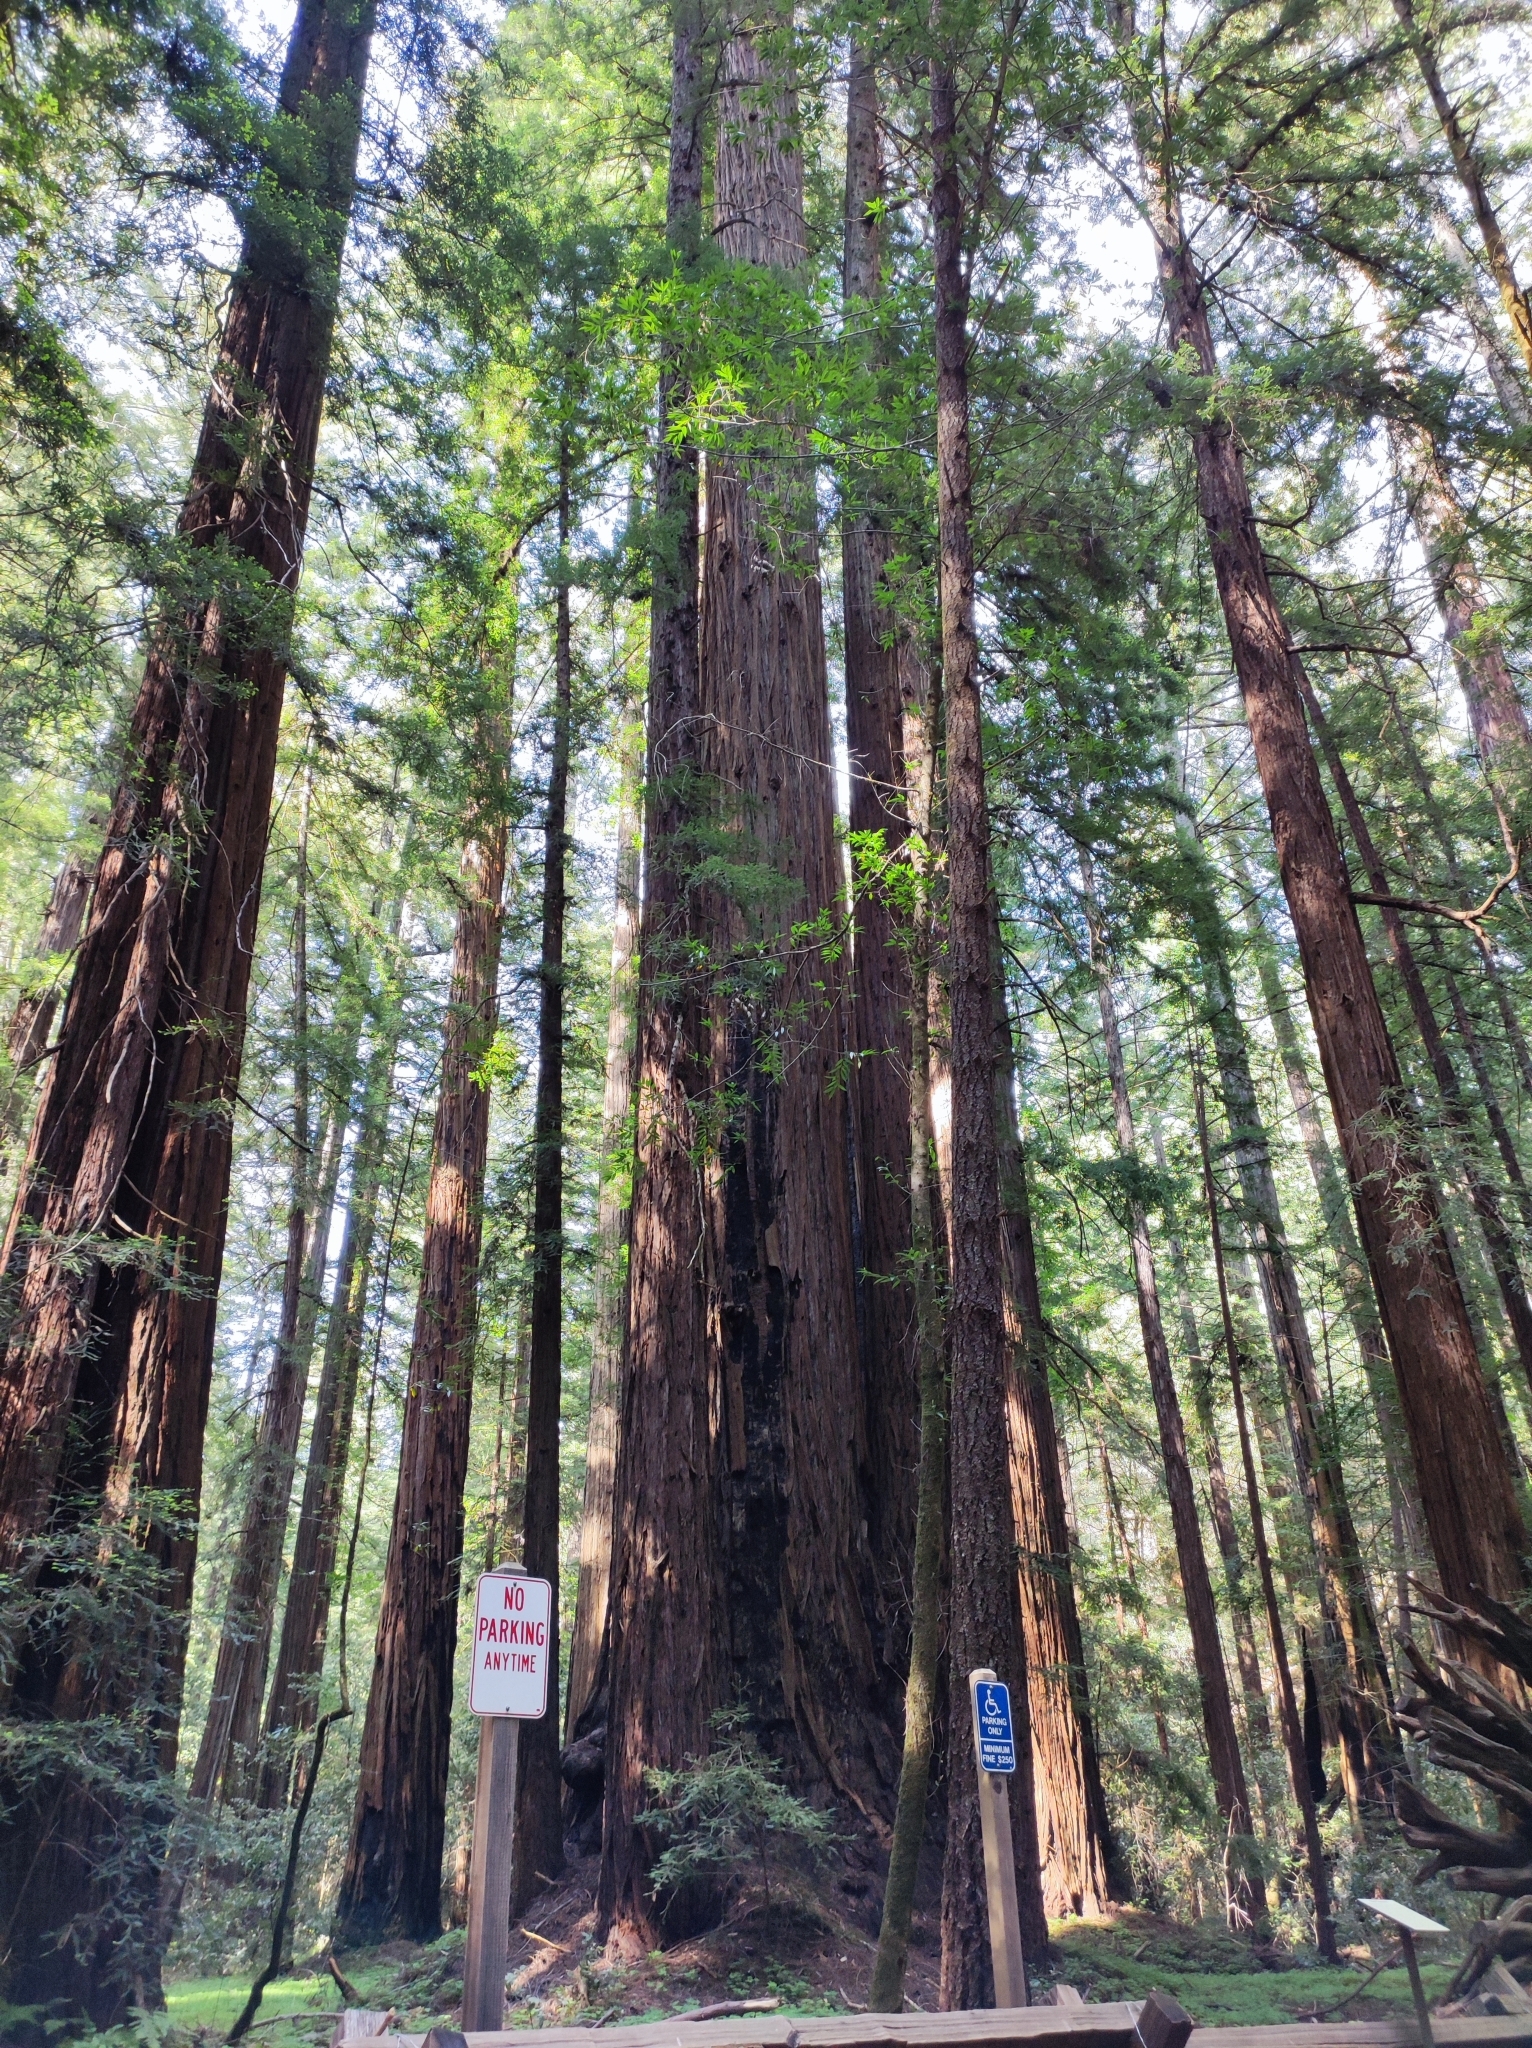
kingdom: Plantae
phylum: Tracheophyta
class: Pinopsida
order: Pinales
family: Cupressaceae
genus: Sequoia
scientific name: Sequoia sempervirens
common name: Coast redwood
